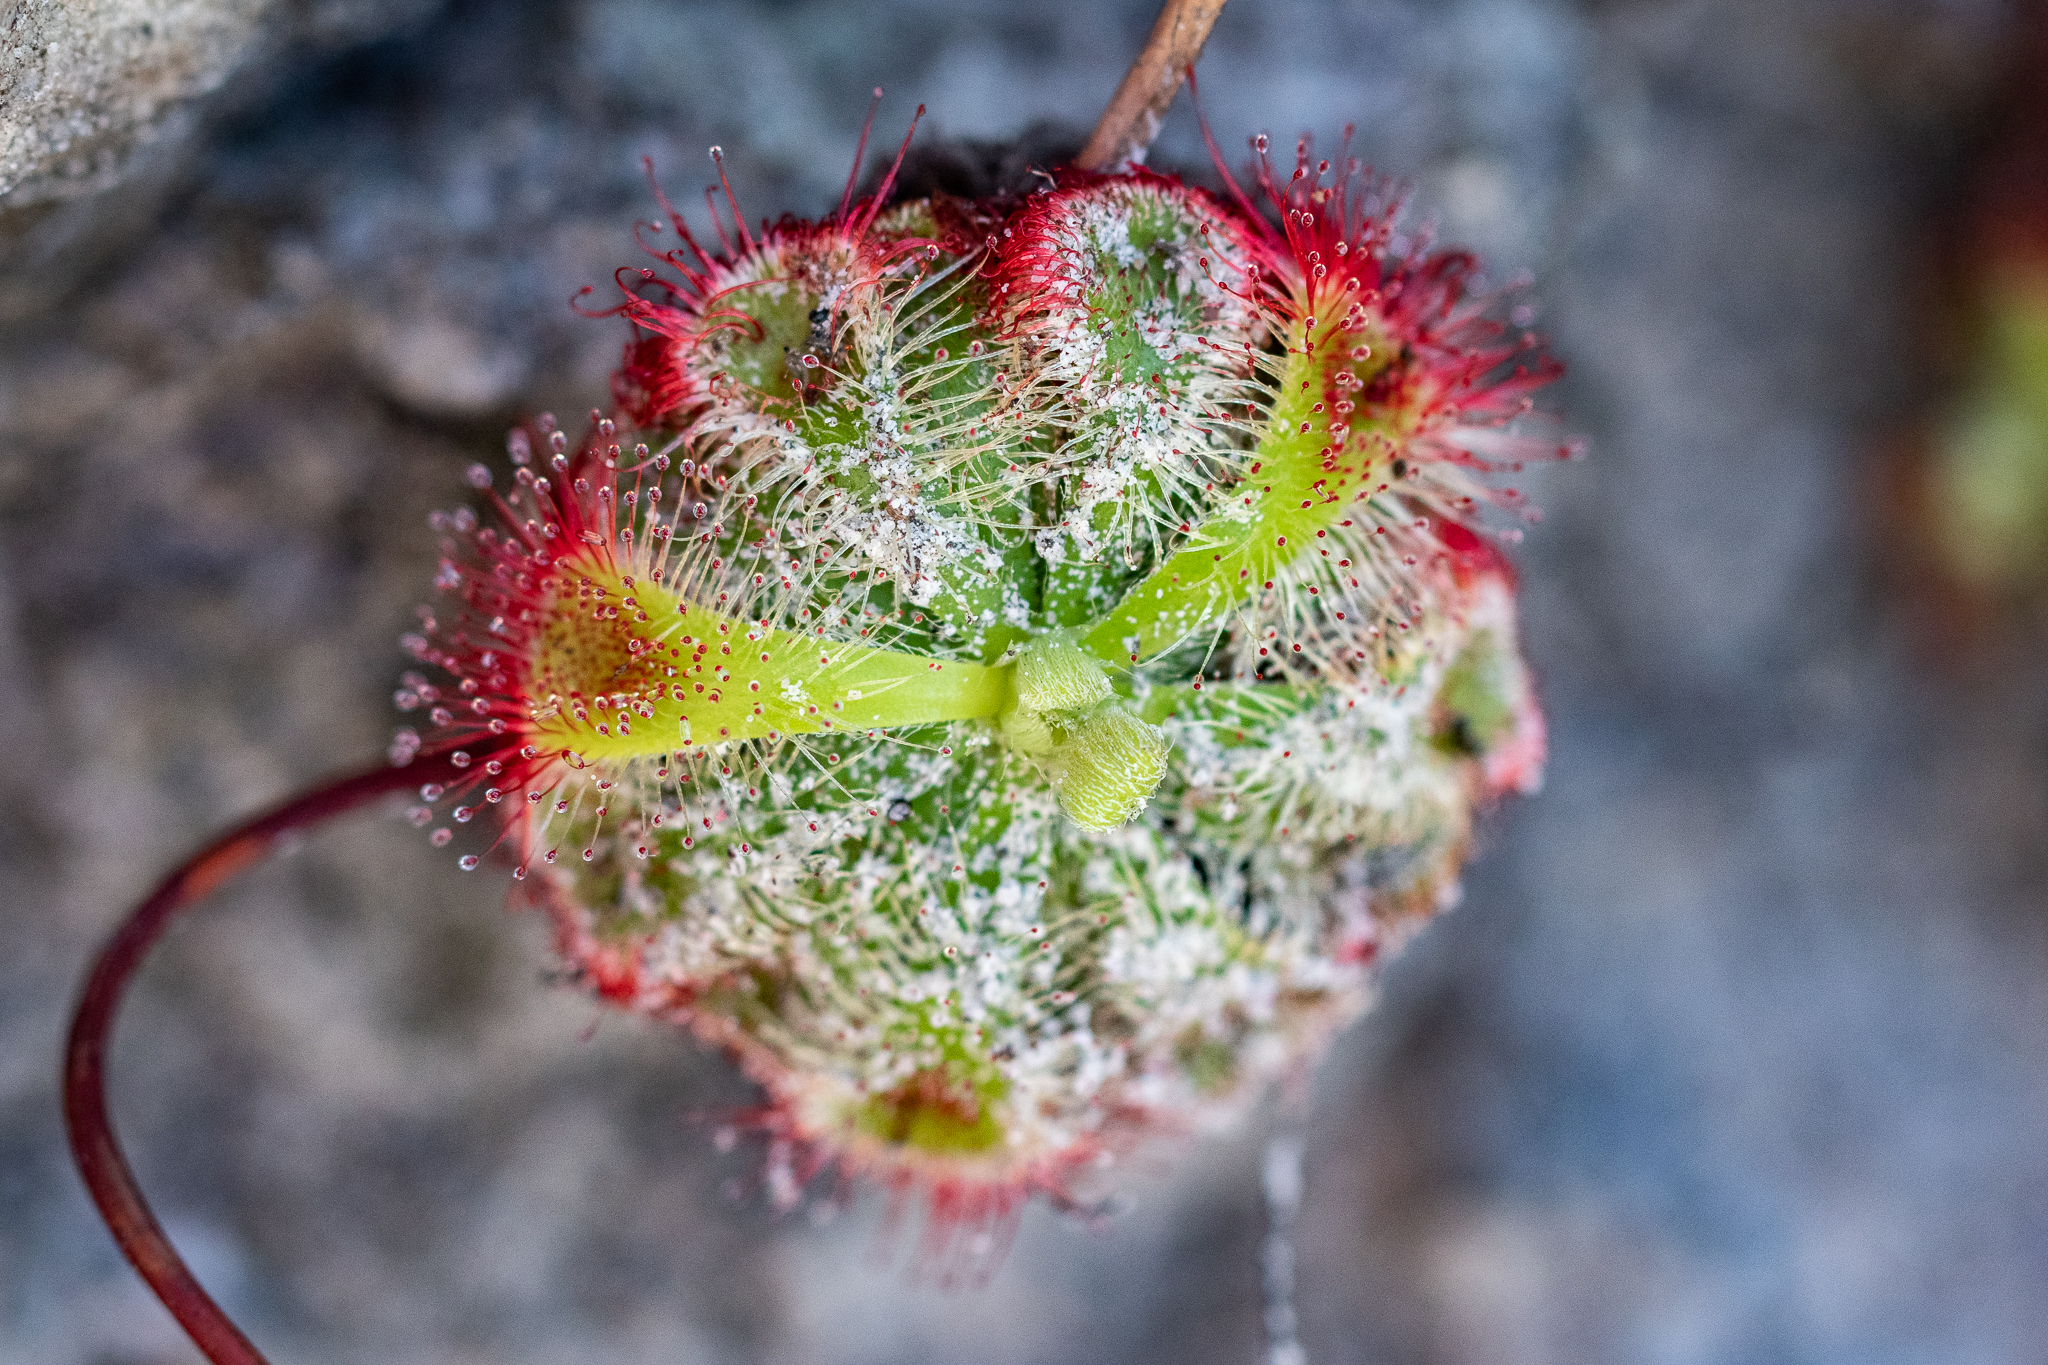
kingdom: Plantae
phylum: Tracheophyta
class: Magnoliopsida
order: Caryophyllales
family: Droseraceae
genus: Drosera
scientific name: Drosera xerophila
